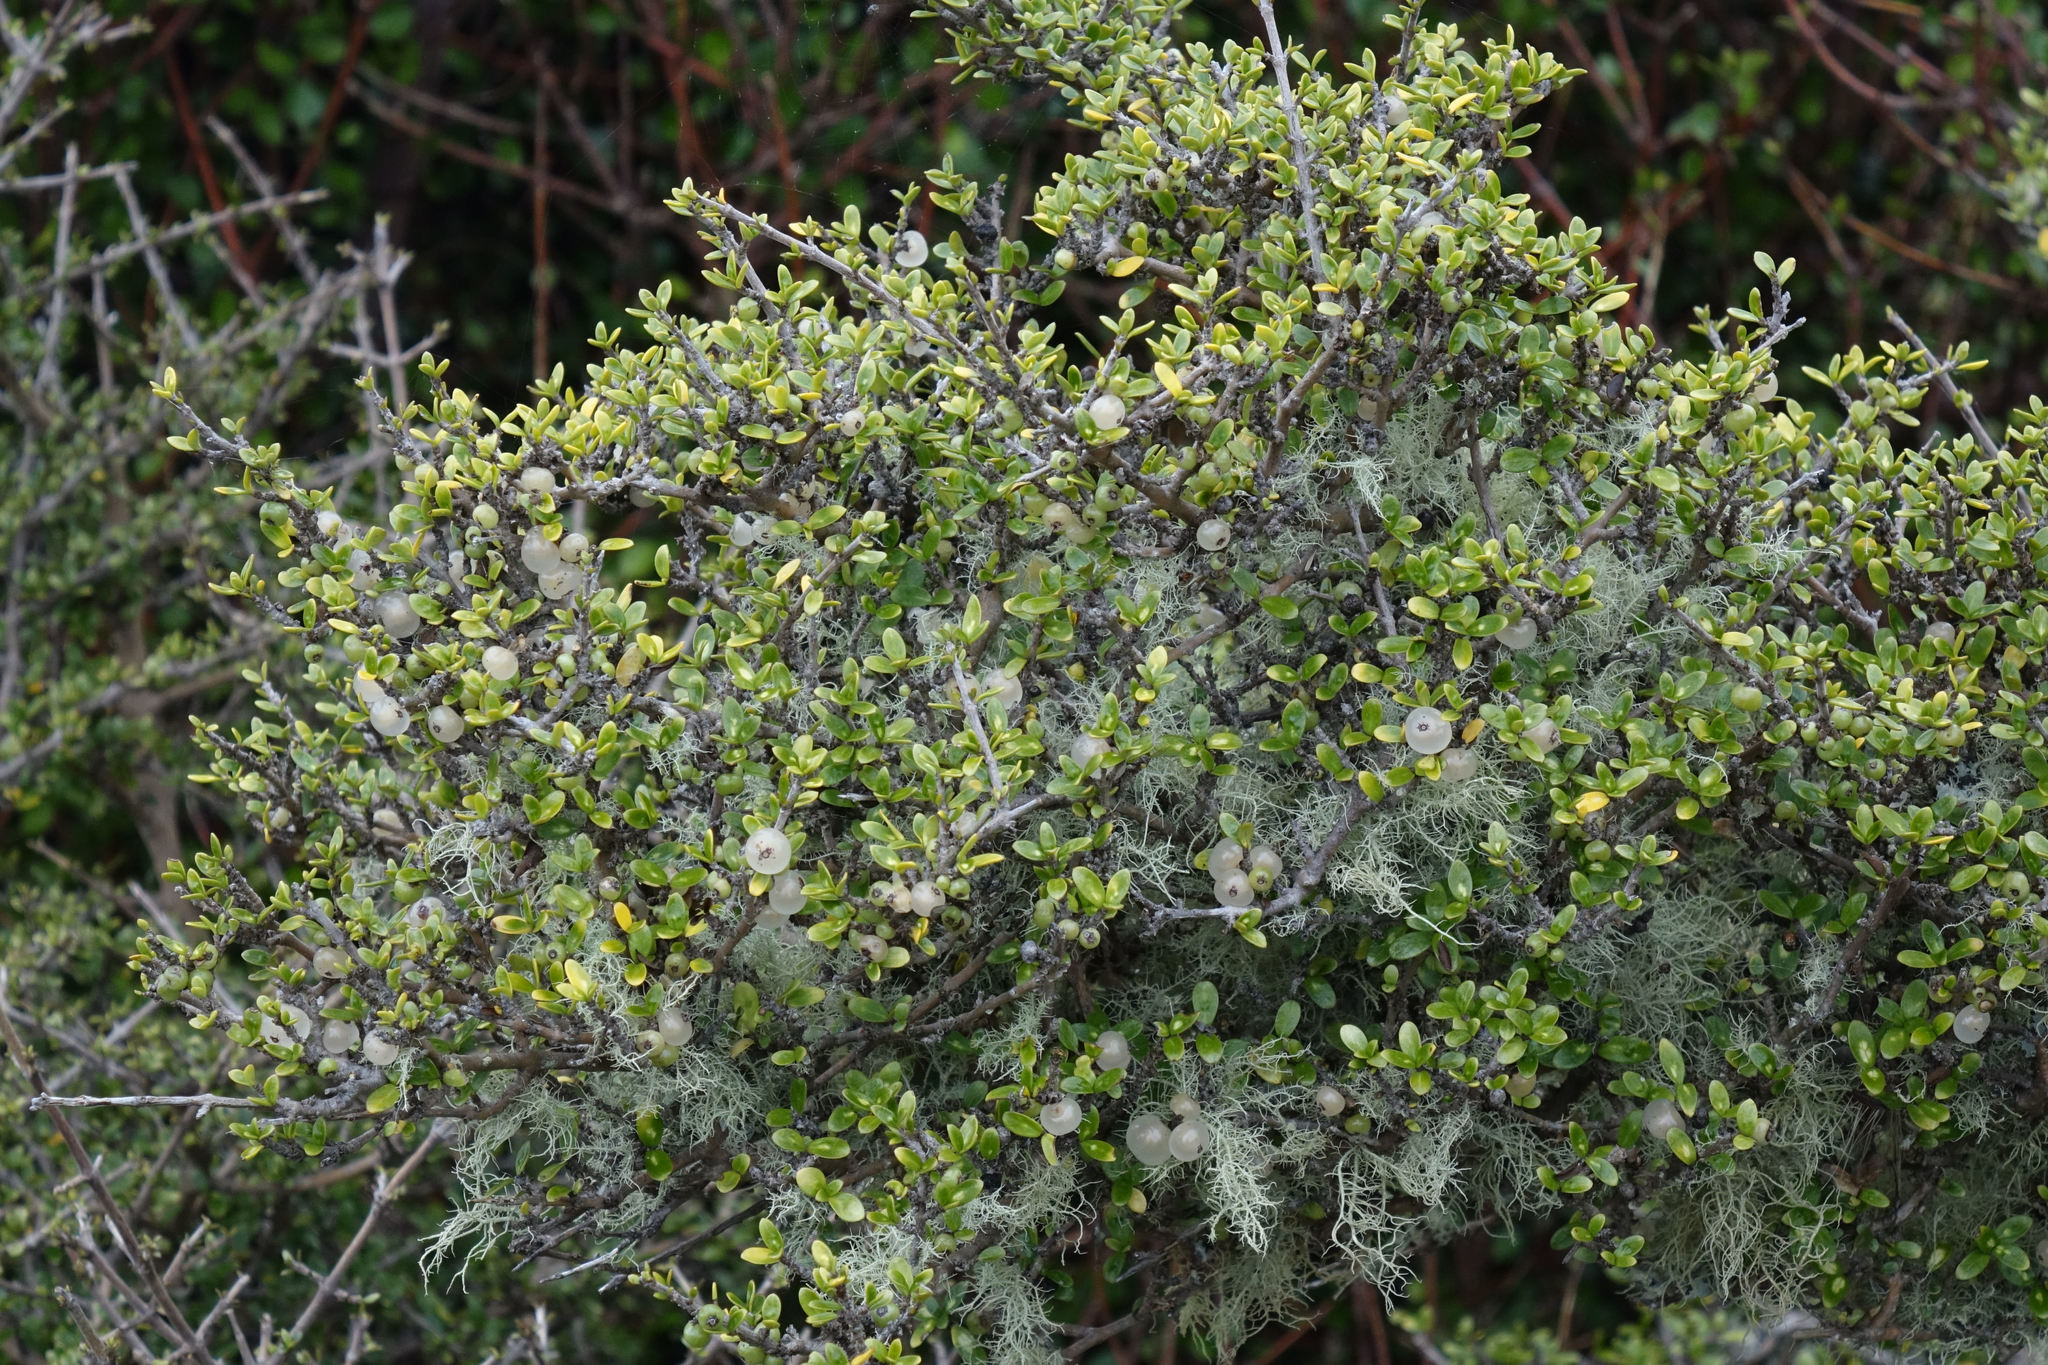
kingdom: Plantae
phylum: Tracheophyta
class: Magnoliopsida
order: Gentianales
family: Rubiaceae
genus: Coprosma
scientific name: Coprosma dumosa
